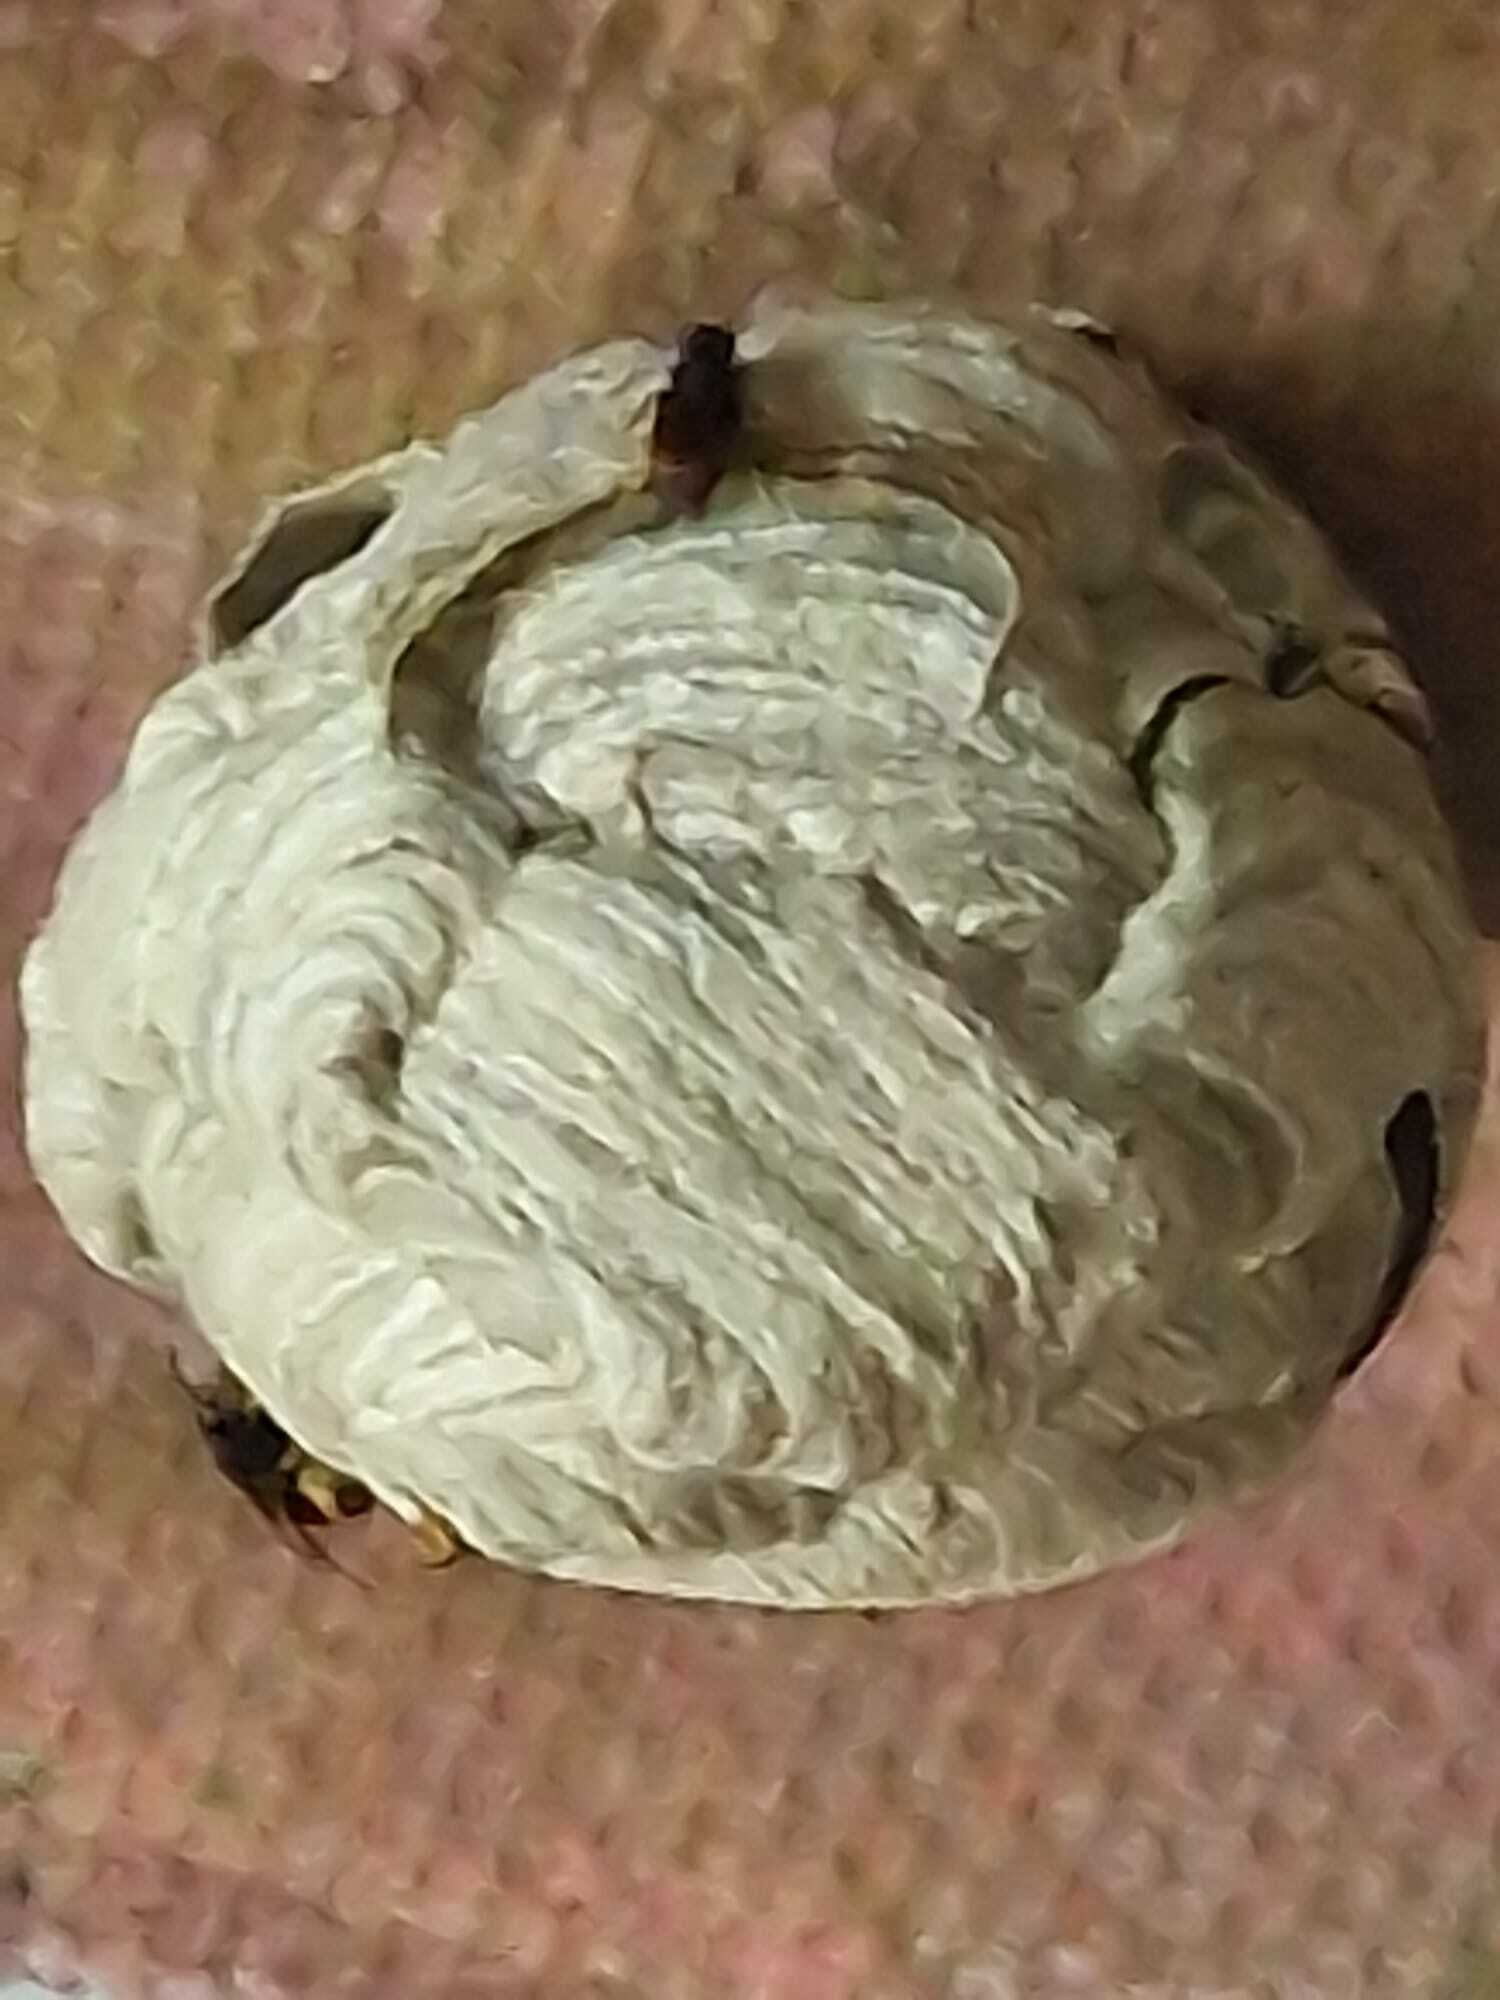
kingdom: Animalia
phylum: Arthropoda
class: Insecta
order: Hymenoptera
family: Vespidae
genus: Vespa
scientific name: Vespa velutina
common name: Asian hornet
